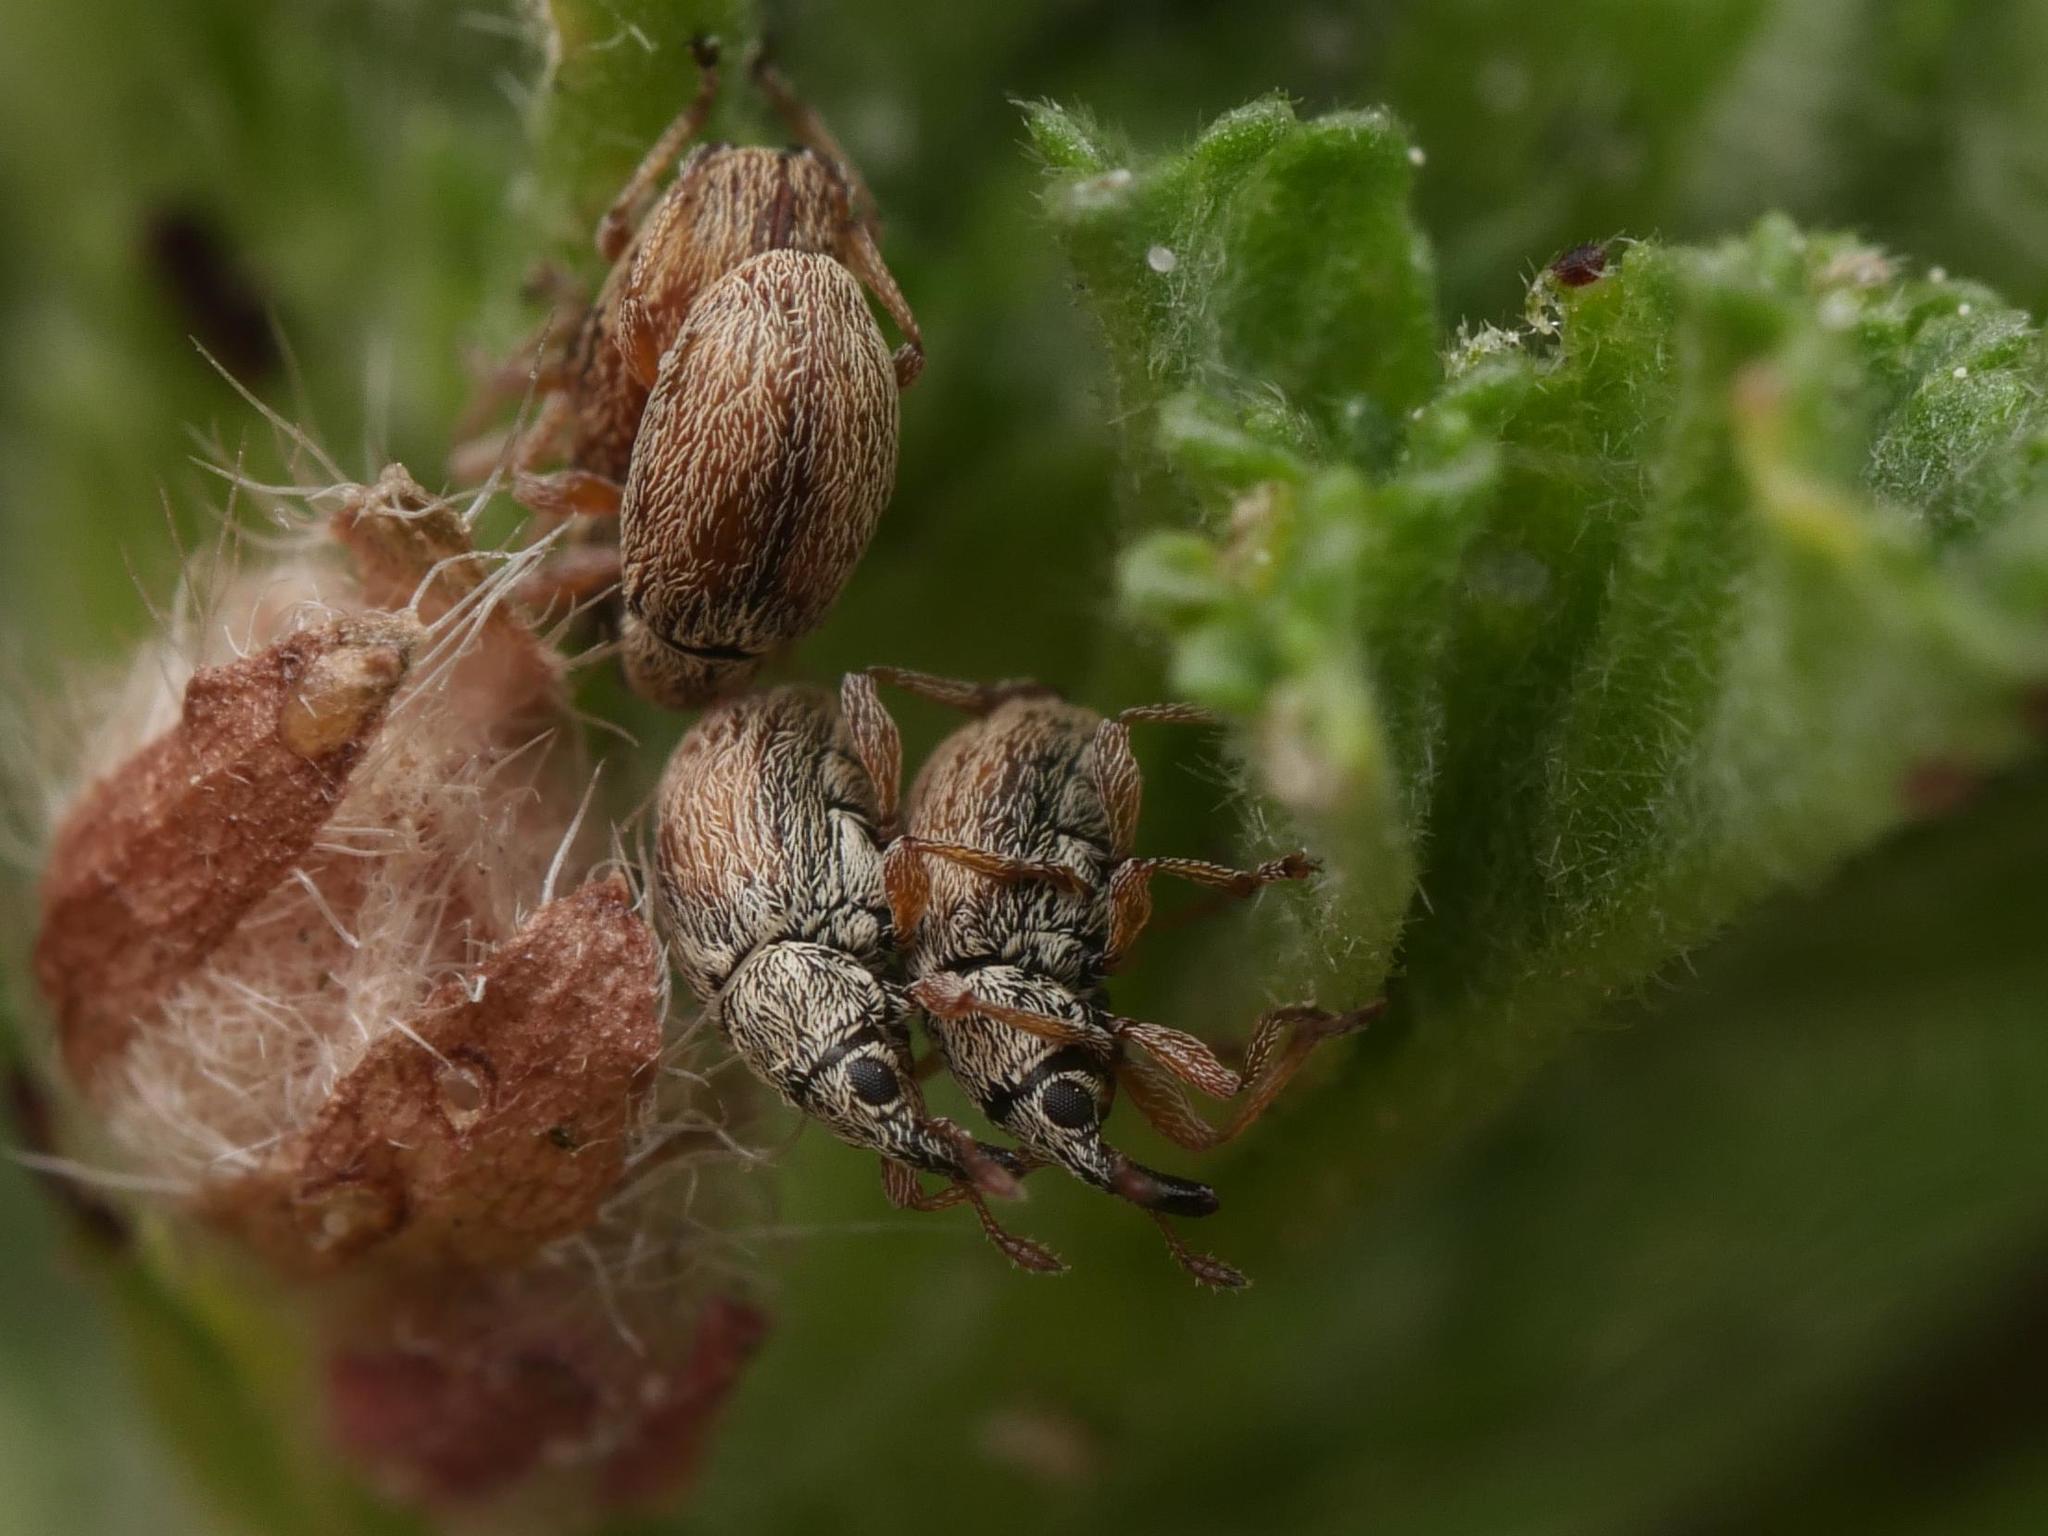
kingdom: Animalia
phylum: Arthropoda
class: Insecta
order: Coleoptera
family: Apionidae
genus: Malvapion
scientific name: Malvapion malvae
